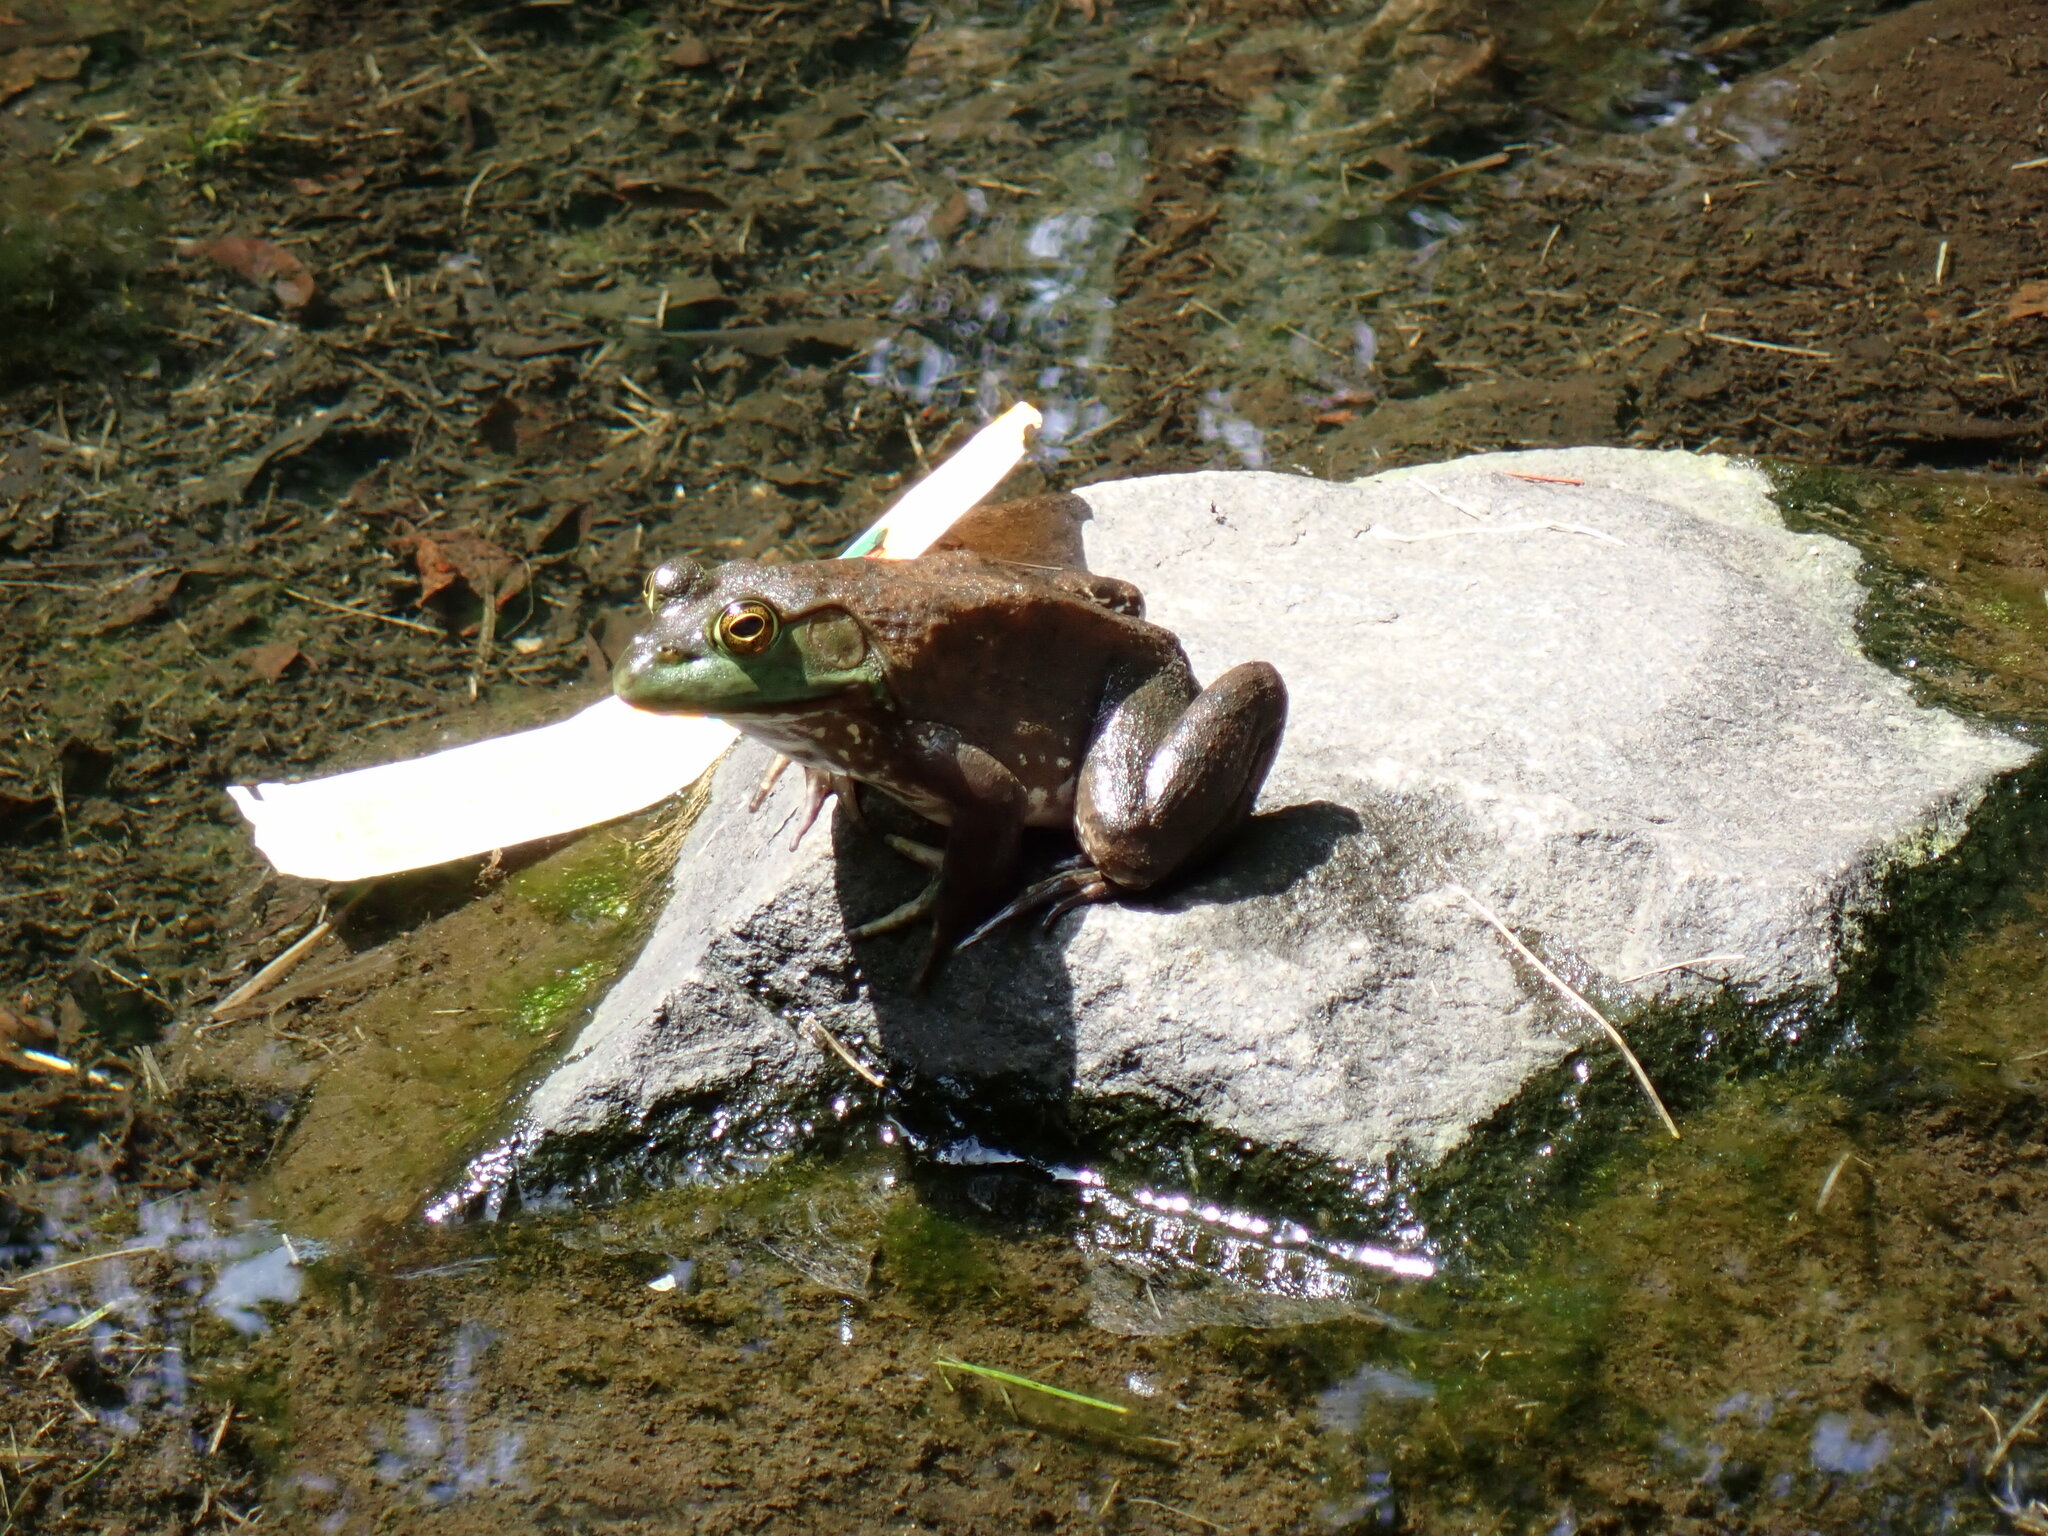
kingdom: Animalia
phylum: Chordata
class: Amphibia
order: Anura
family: Ranidae
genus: Lithobates
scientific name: Lithobates catesbeianus
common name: American bullfrog
